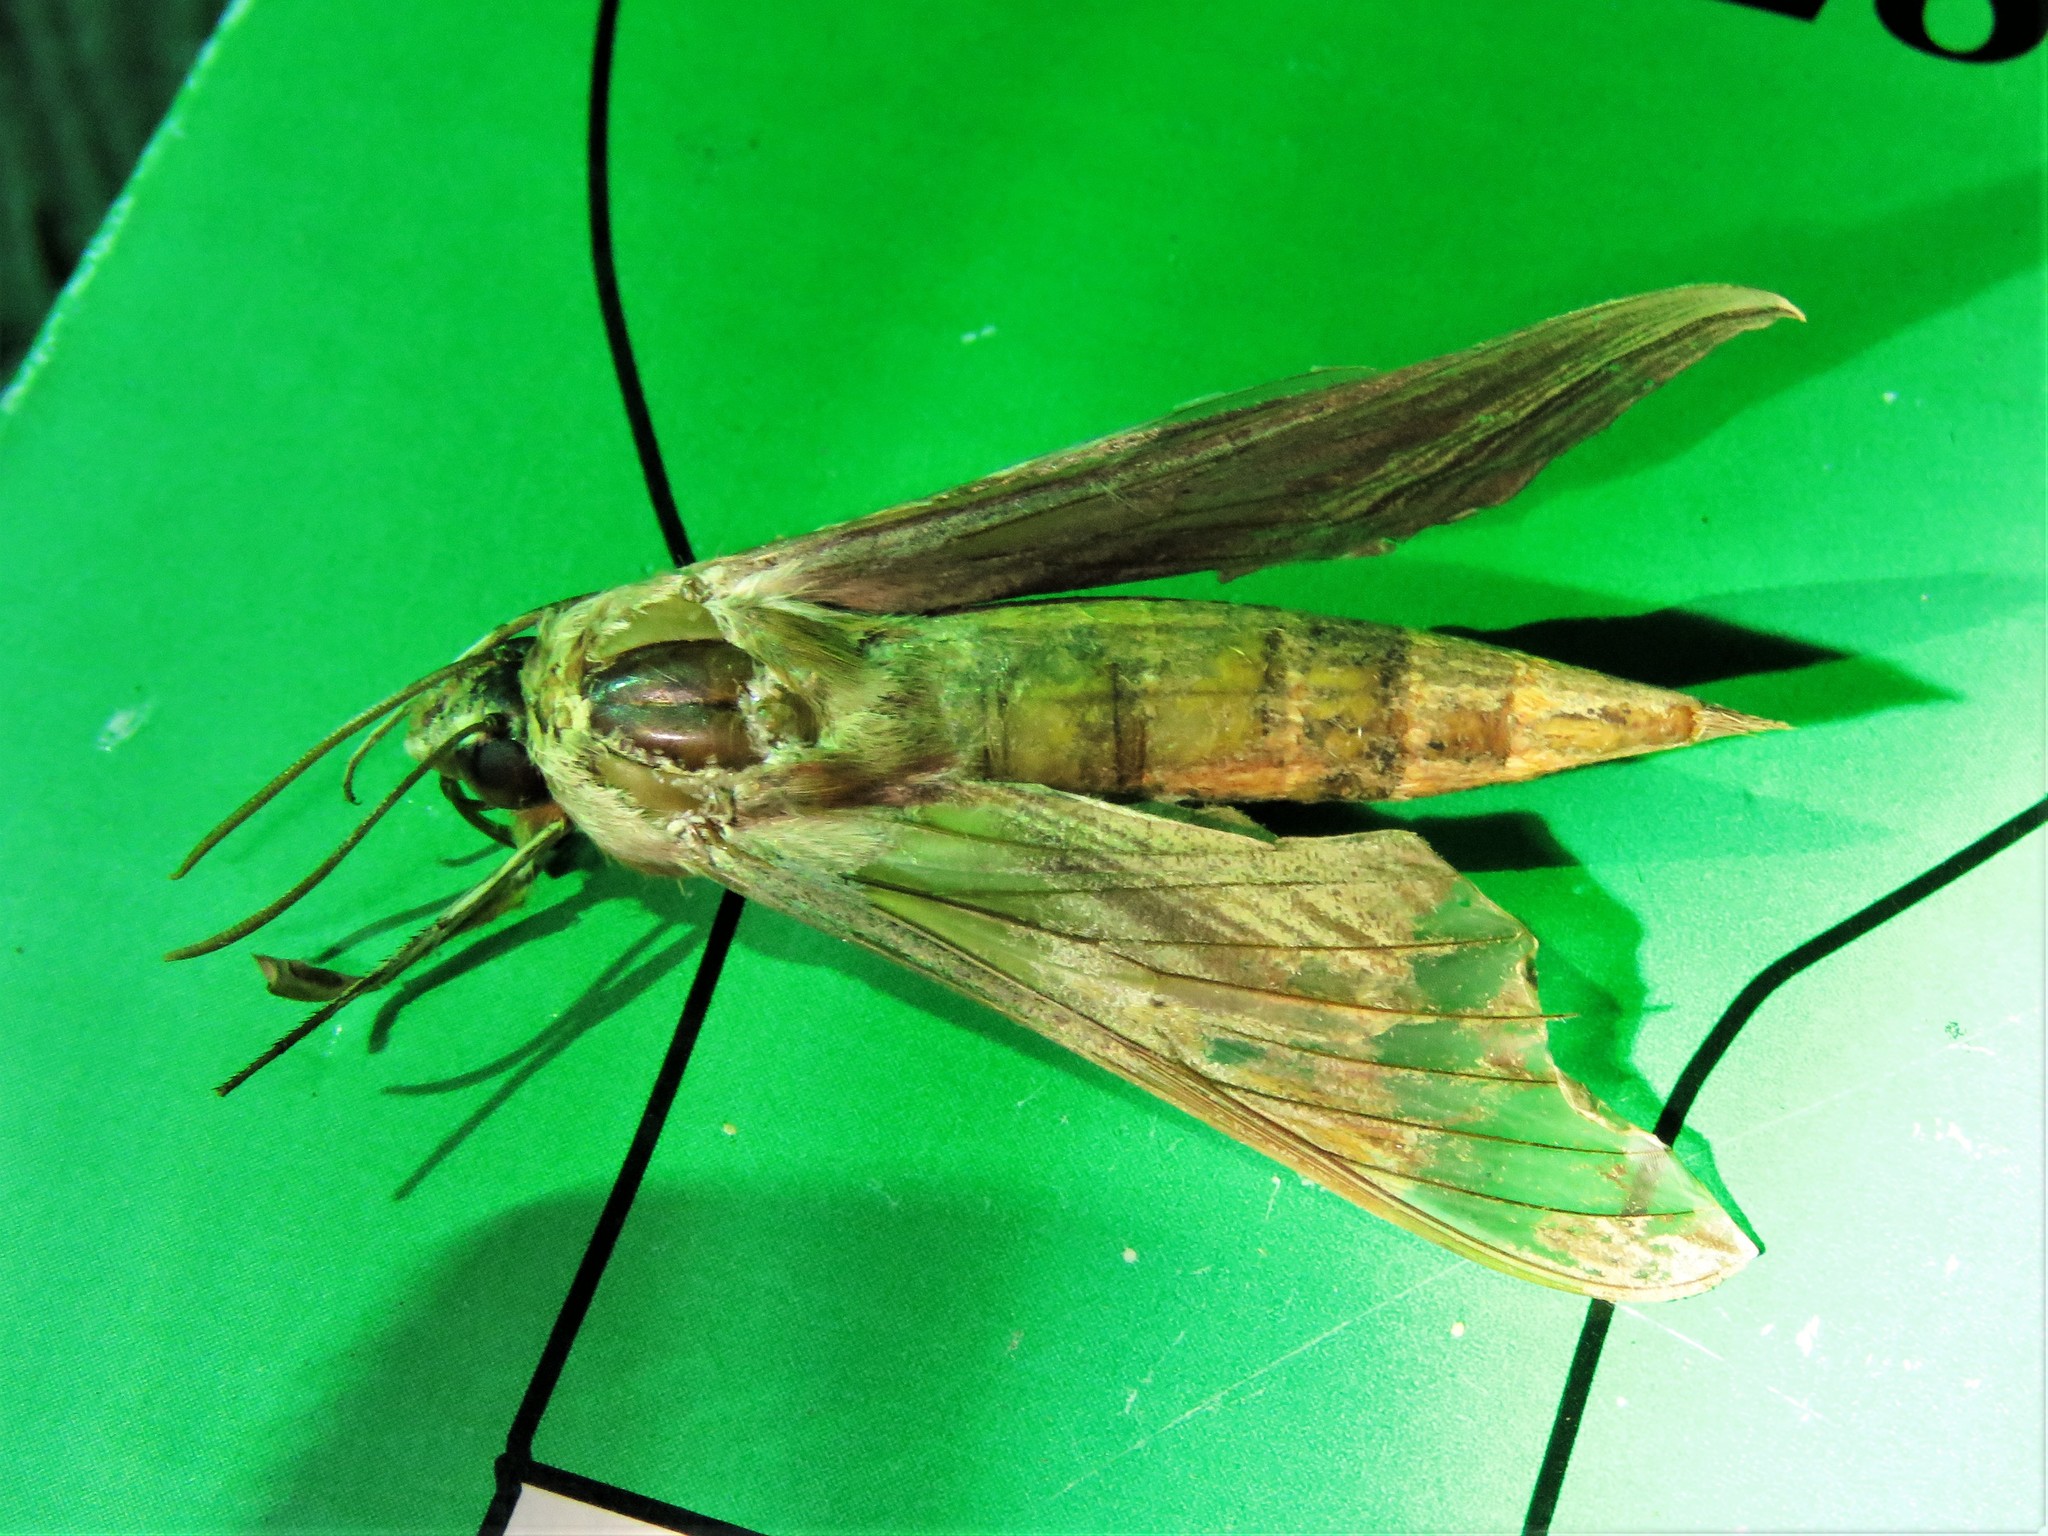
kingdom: Animalia
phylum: Arthropoda
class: Insecta
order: Lepidoptera
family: Sphingidae
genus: Xylophanes
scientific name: Xylophanes tersa
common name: Tersa sphinx
